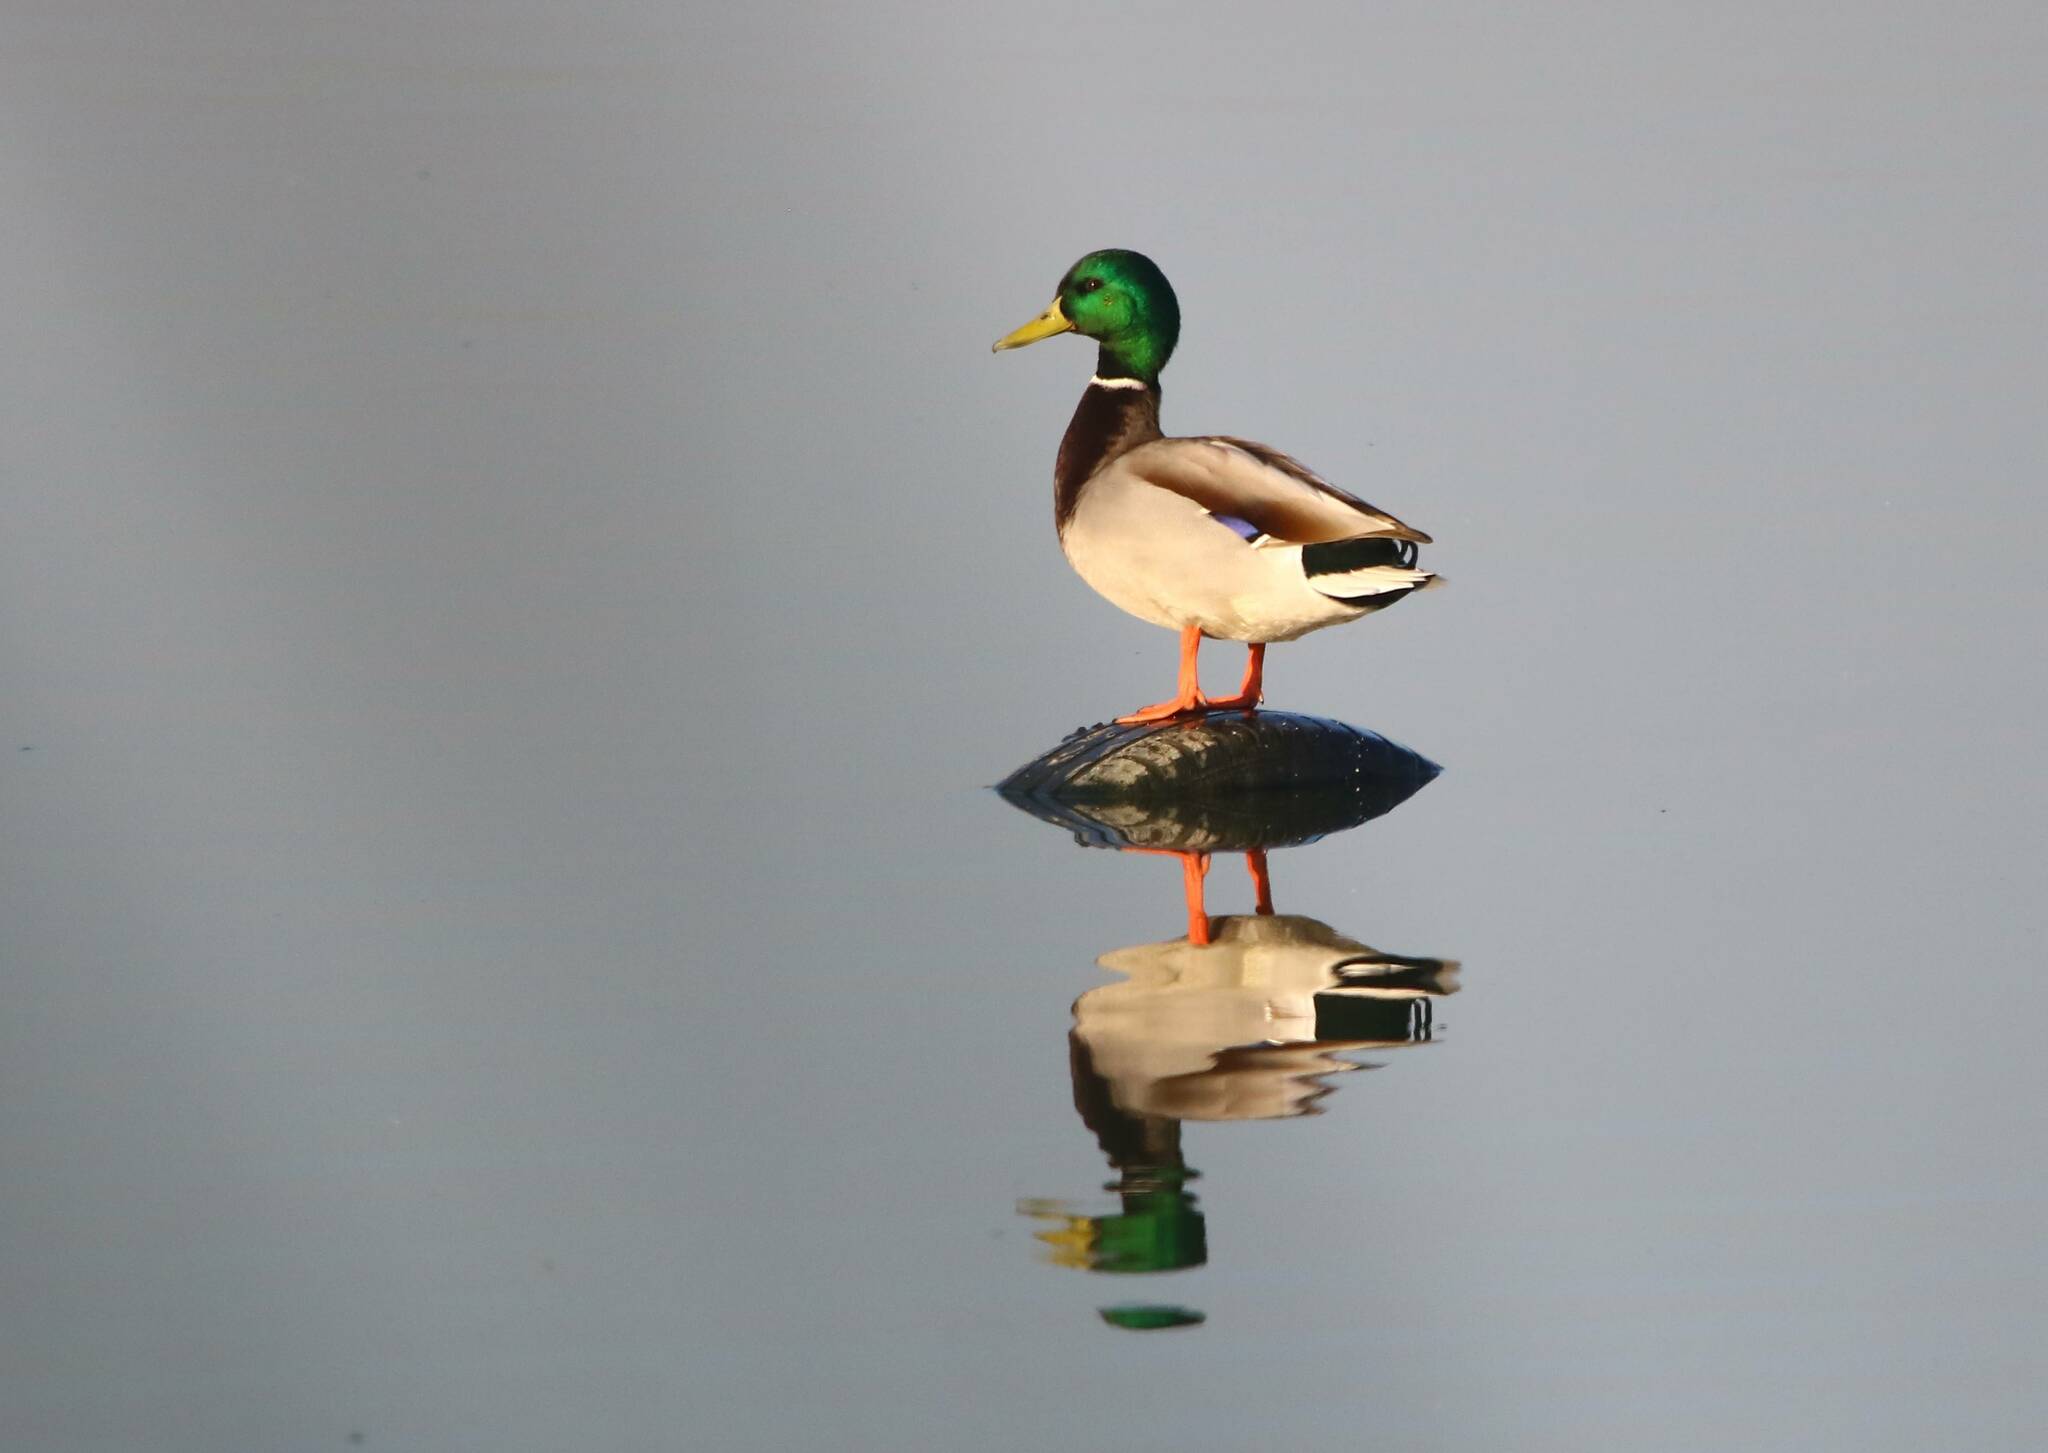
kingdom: Animalia
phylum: Chordata
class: Aves
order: Anseriformes
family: Anatidae
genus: Anas
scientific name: Anas platyrhynchos
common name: Mallard
